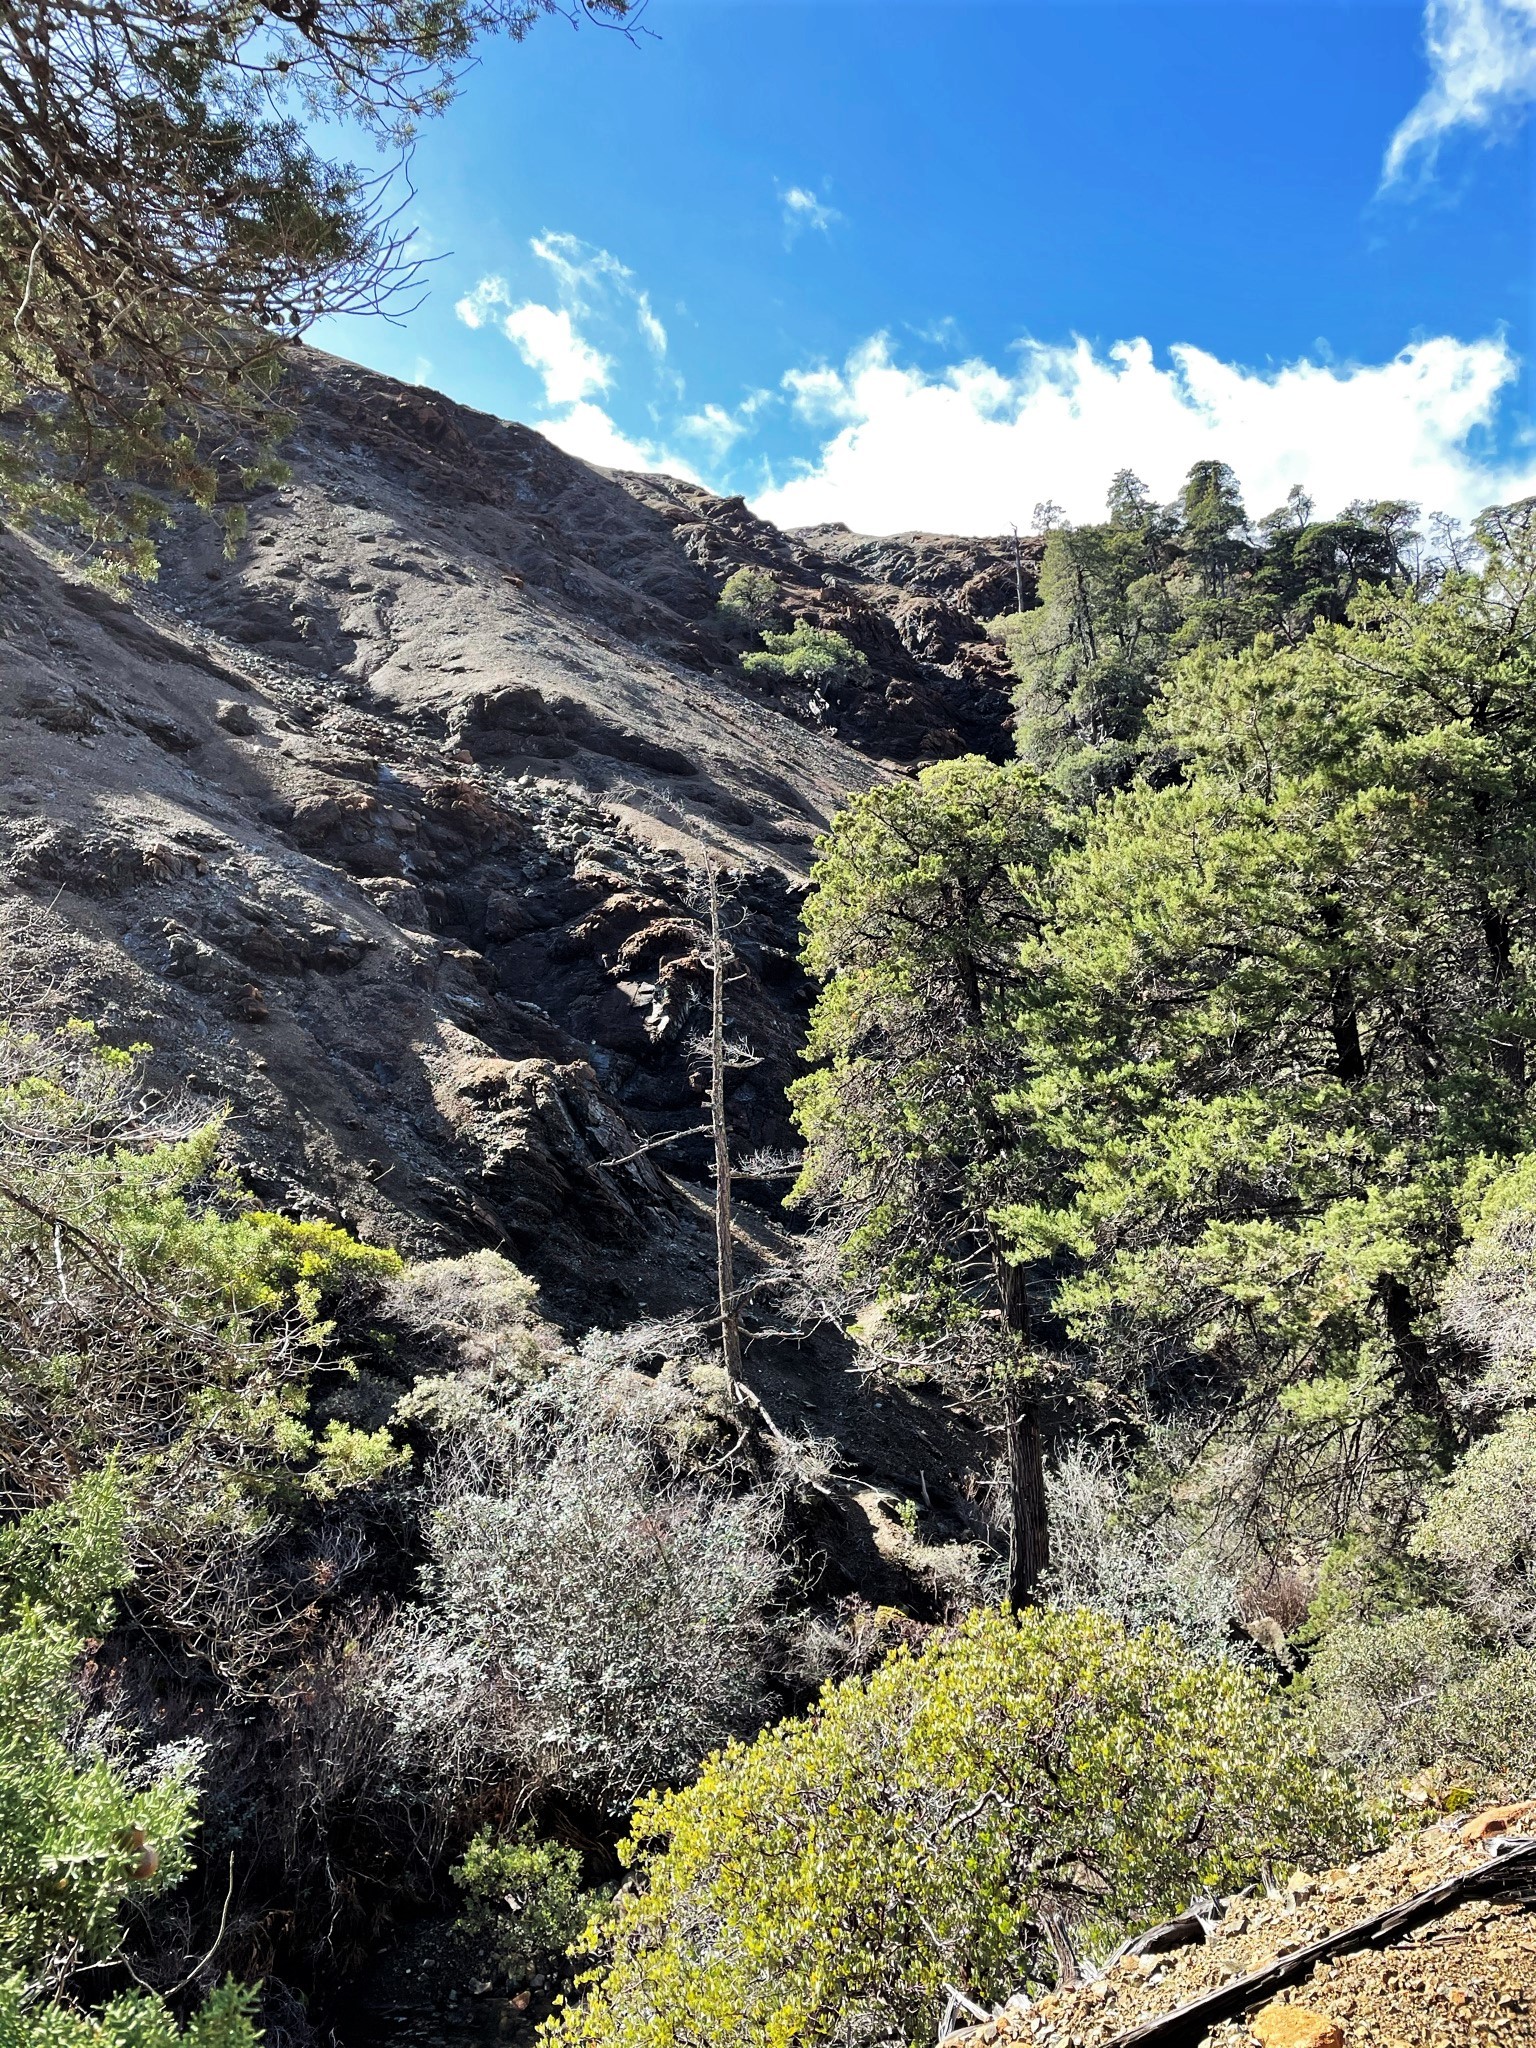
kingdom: Plantae
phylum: Tracheophyta
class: Pinopsida
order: Pinales
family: Cupressaceae
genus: Cupressus
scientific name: Cupressus sargentii
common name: Sargent cypress
